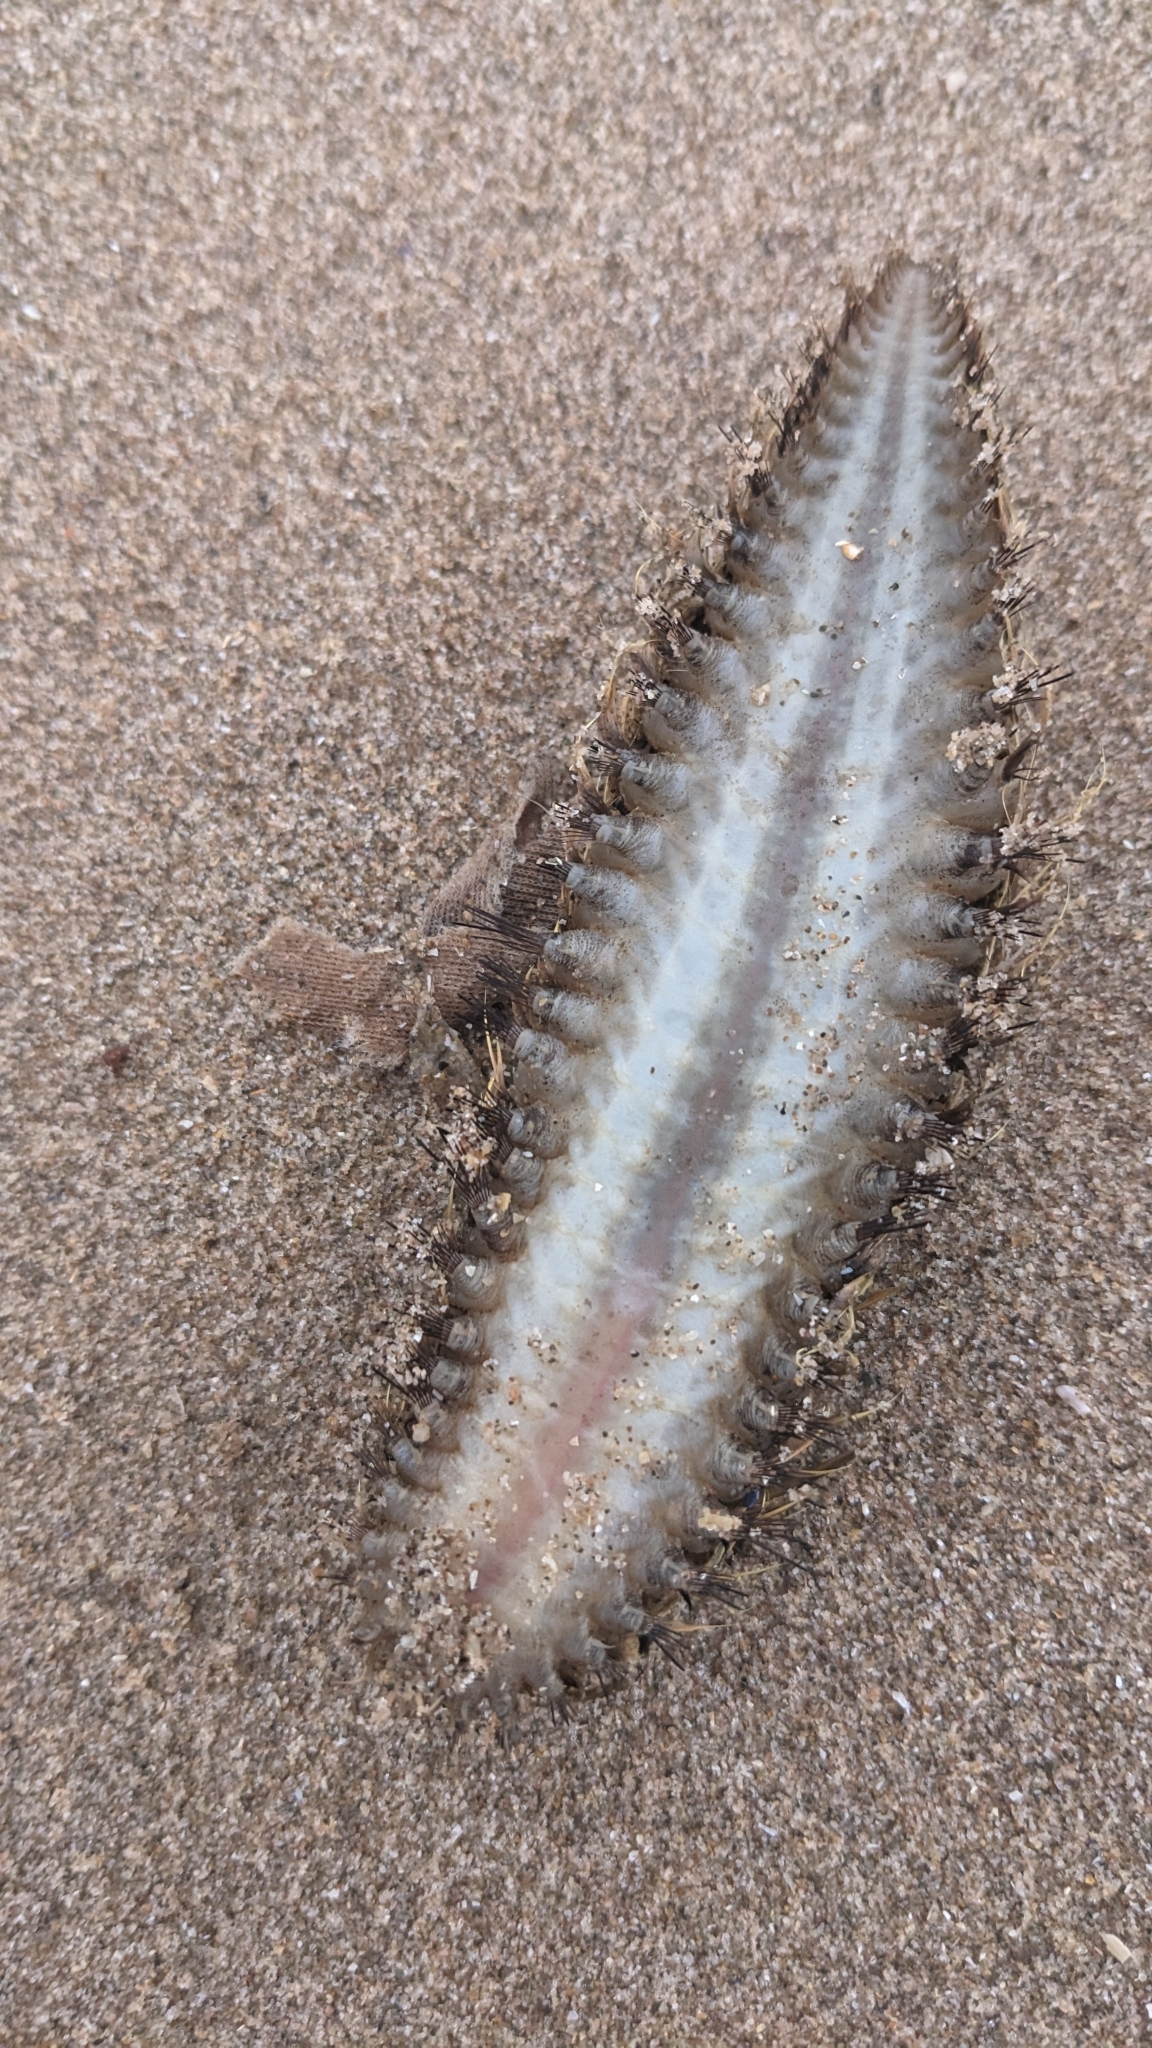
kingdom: Animalia
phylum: Annelida
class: Polychaeta
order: Phyllodocida
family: Aphroditidae
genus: Aphrodita
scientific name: Aphrodita aculeata
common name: Sea mouse
